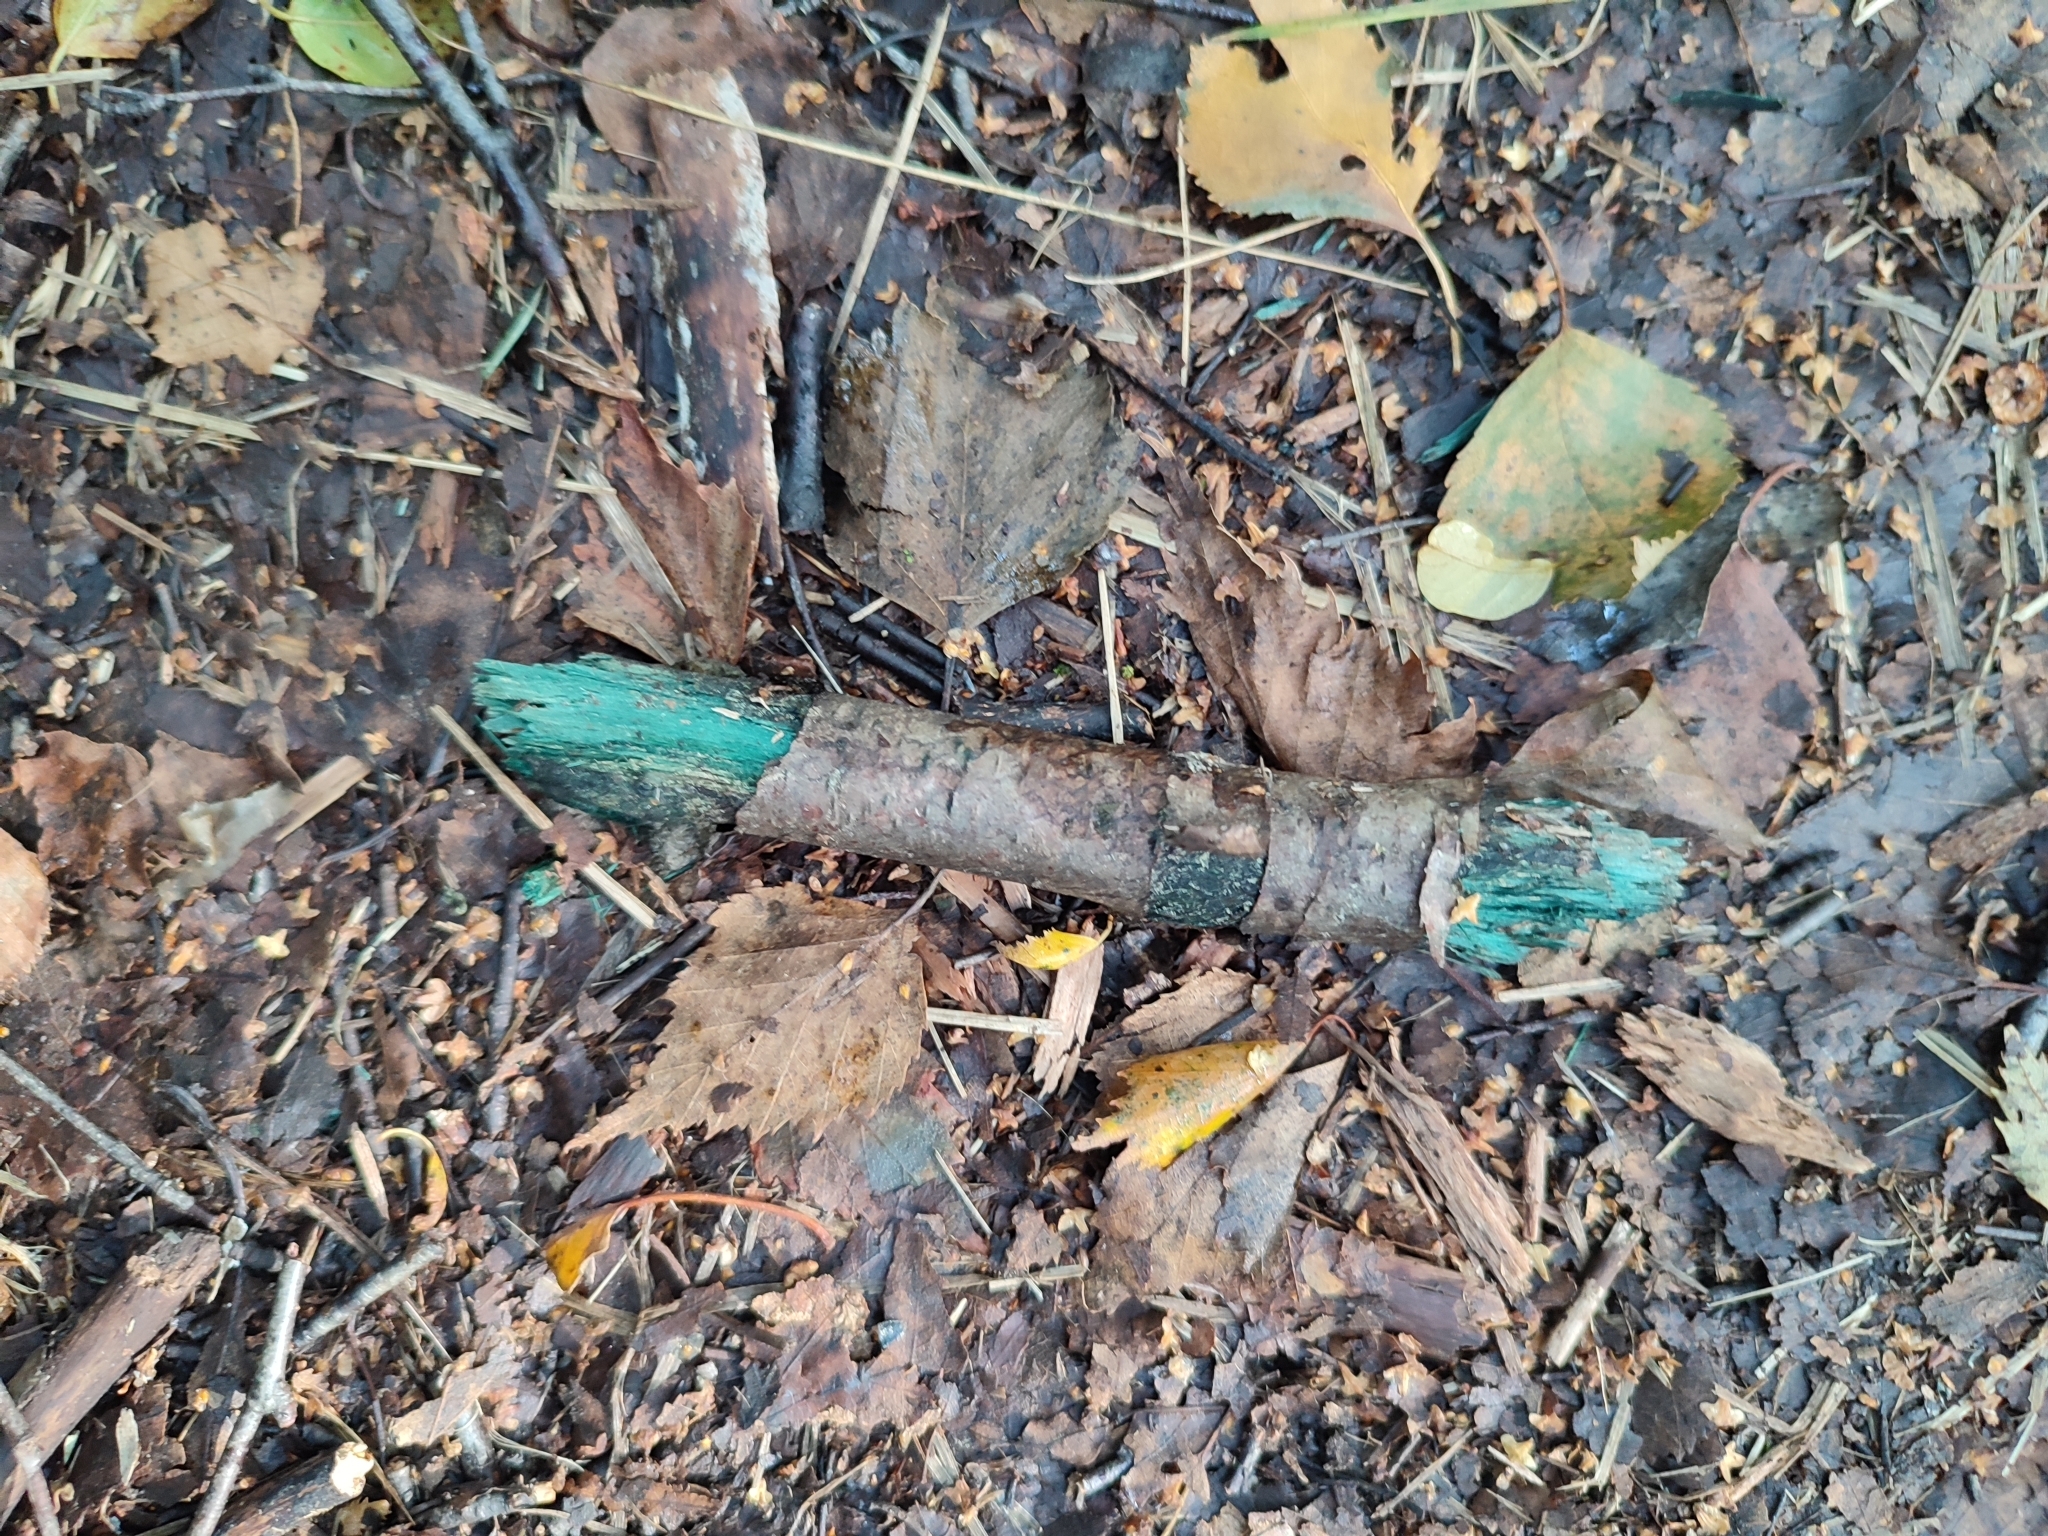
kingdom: Fungi
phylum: Ascomycota
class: Leotiomycetes
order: Helotiales
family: Chlorociboriaceae
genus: Chlorociboria
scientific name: Chlorociboria
